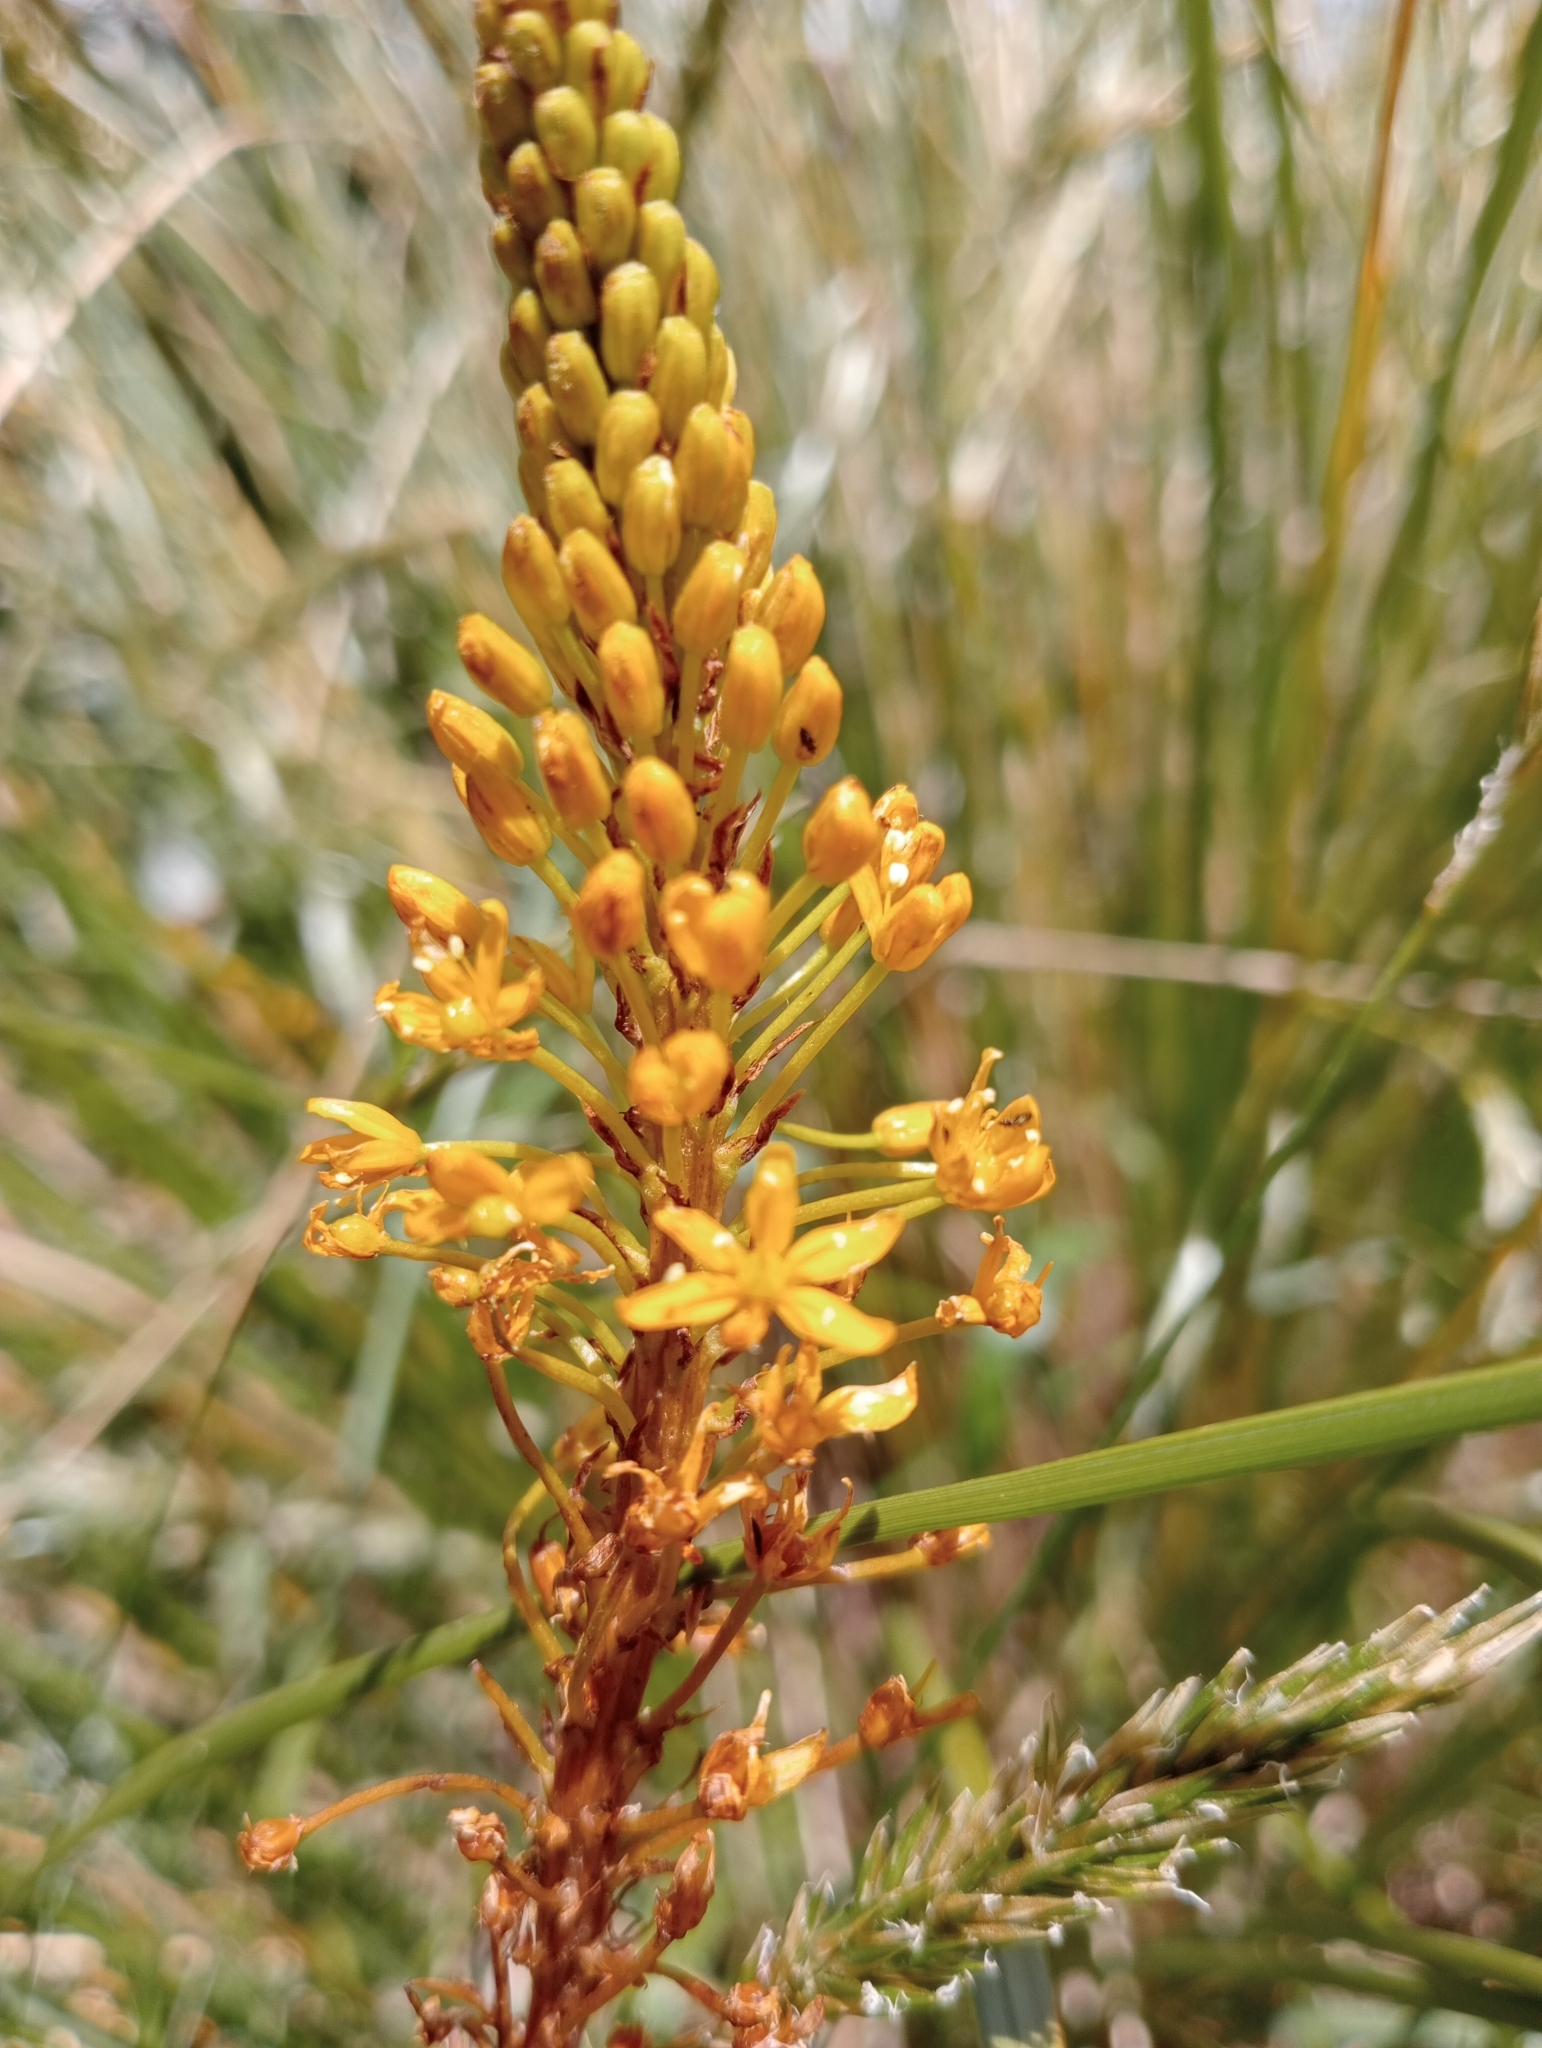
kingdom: Plantae
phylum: Tracheophyta
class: Liliopsida
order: Asparagales
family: Asphodelaceae
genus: Bulbinella
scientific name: Bulbinella angustifolia
